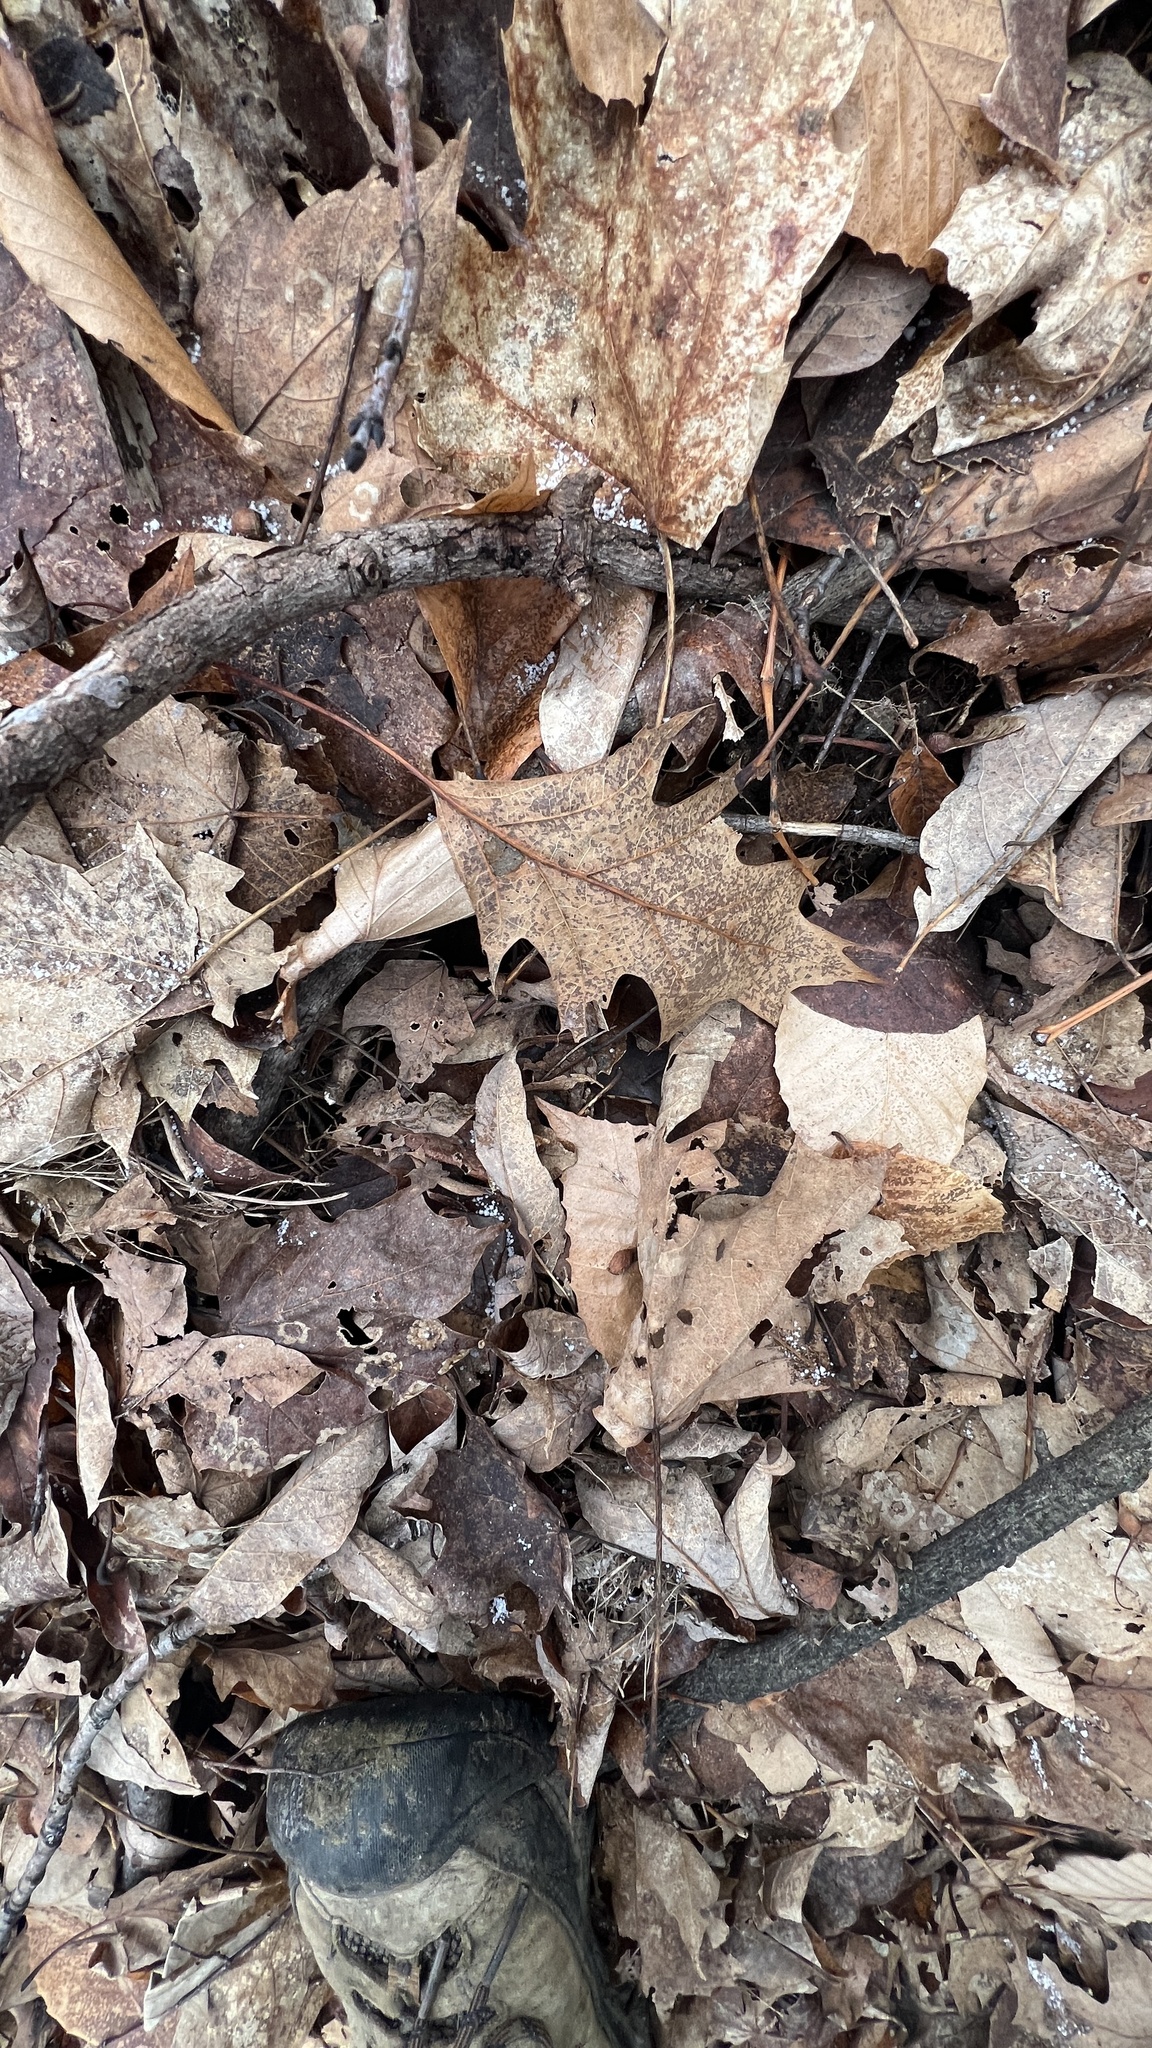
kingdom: Plantae
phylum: Tracheophyta
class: Magnoliopsida
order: Fagales
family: Fagaceae
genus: Quercus
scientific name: Quercus rubra
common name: Red oak
